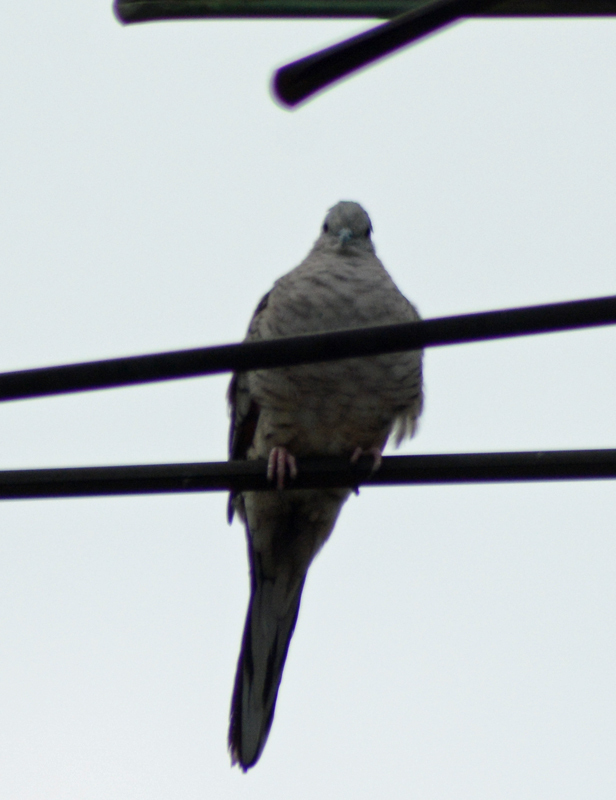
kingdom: Animalia
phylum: Chordata
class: Aves
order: Columbiformes
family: Columbidae
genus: Columbina
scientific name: Columbina inca
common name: Inca dove
